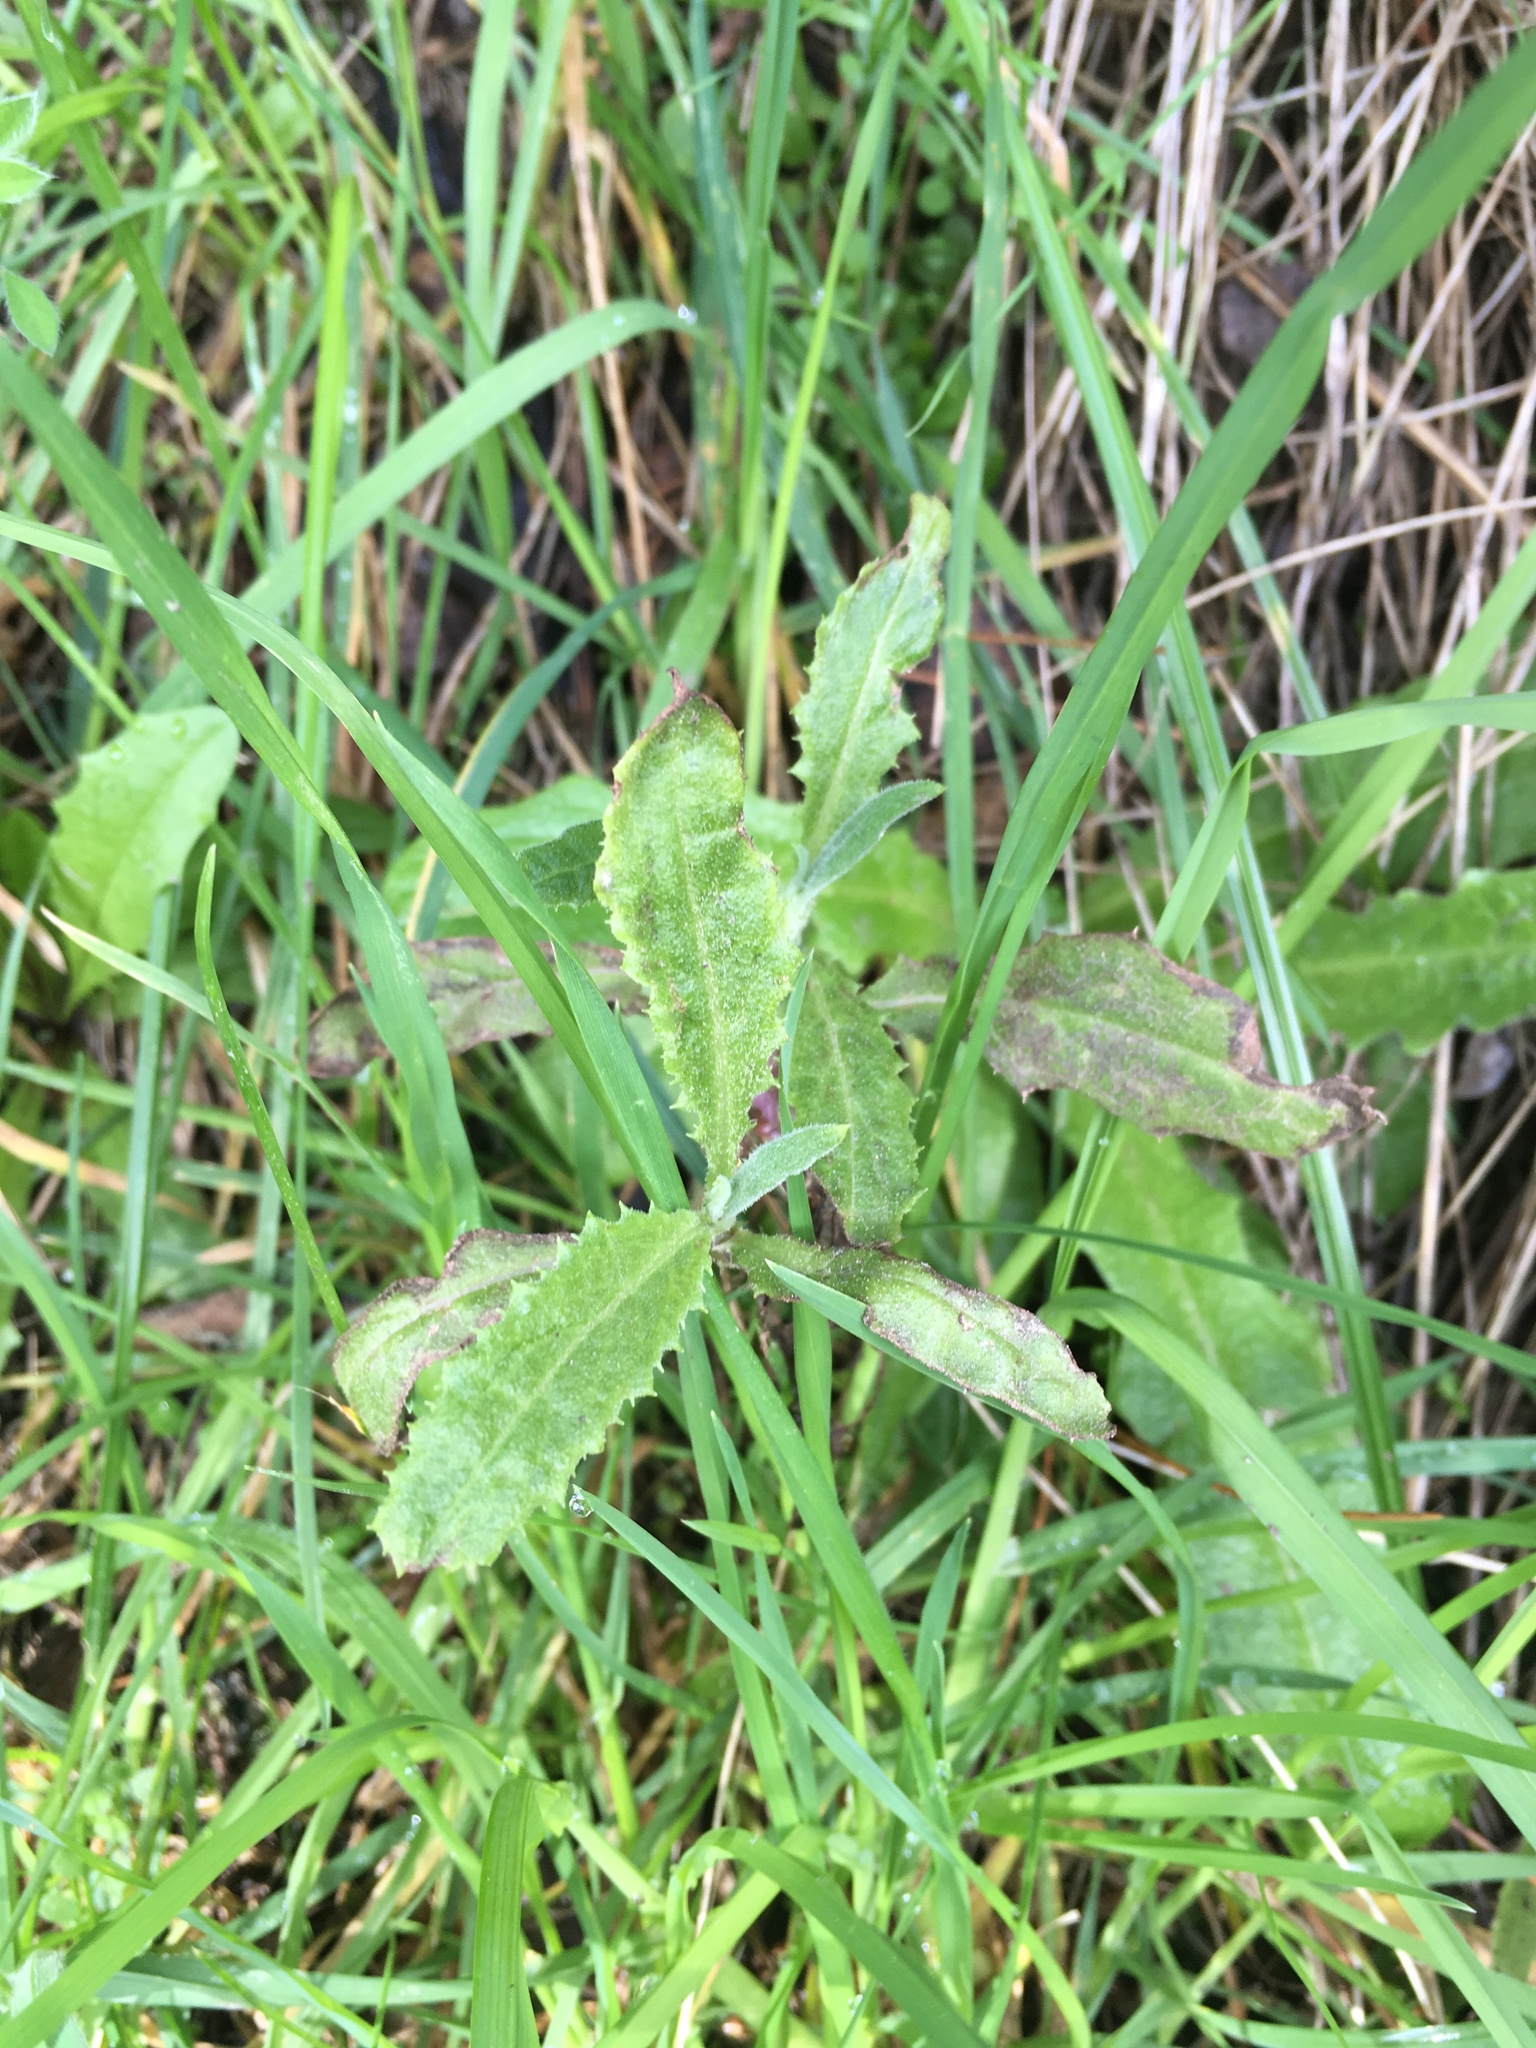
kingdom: Plantae
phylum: Tracheophyta
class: Magnoliopsida
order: Asterales
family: Asteraceae
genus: Senecio
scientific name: Senecio minimus
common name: Toothed fireweed
